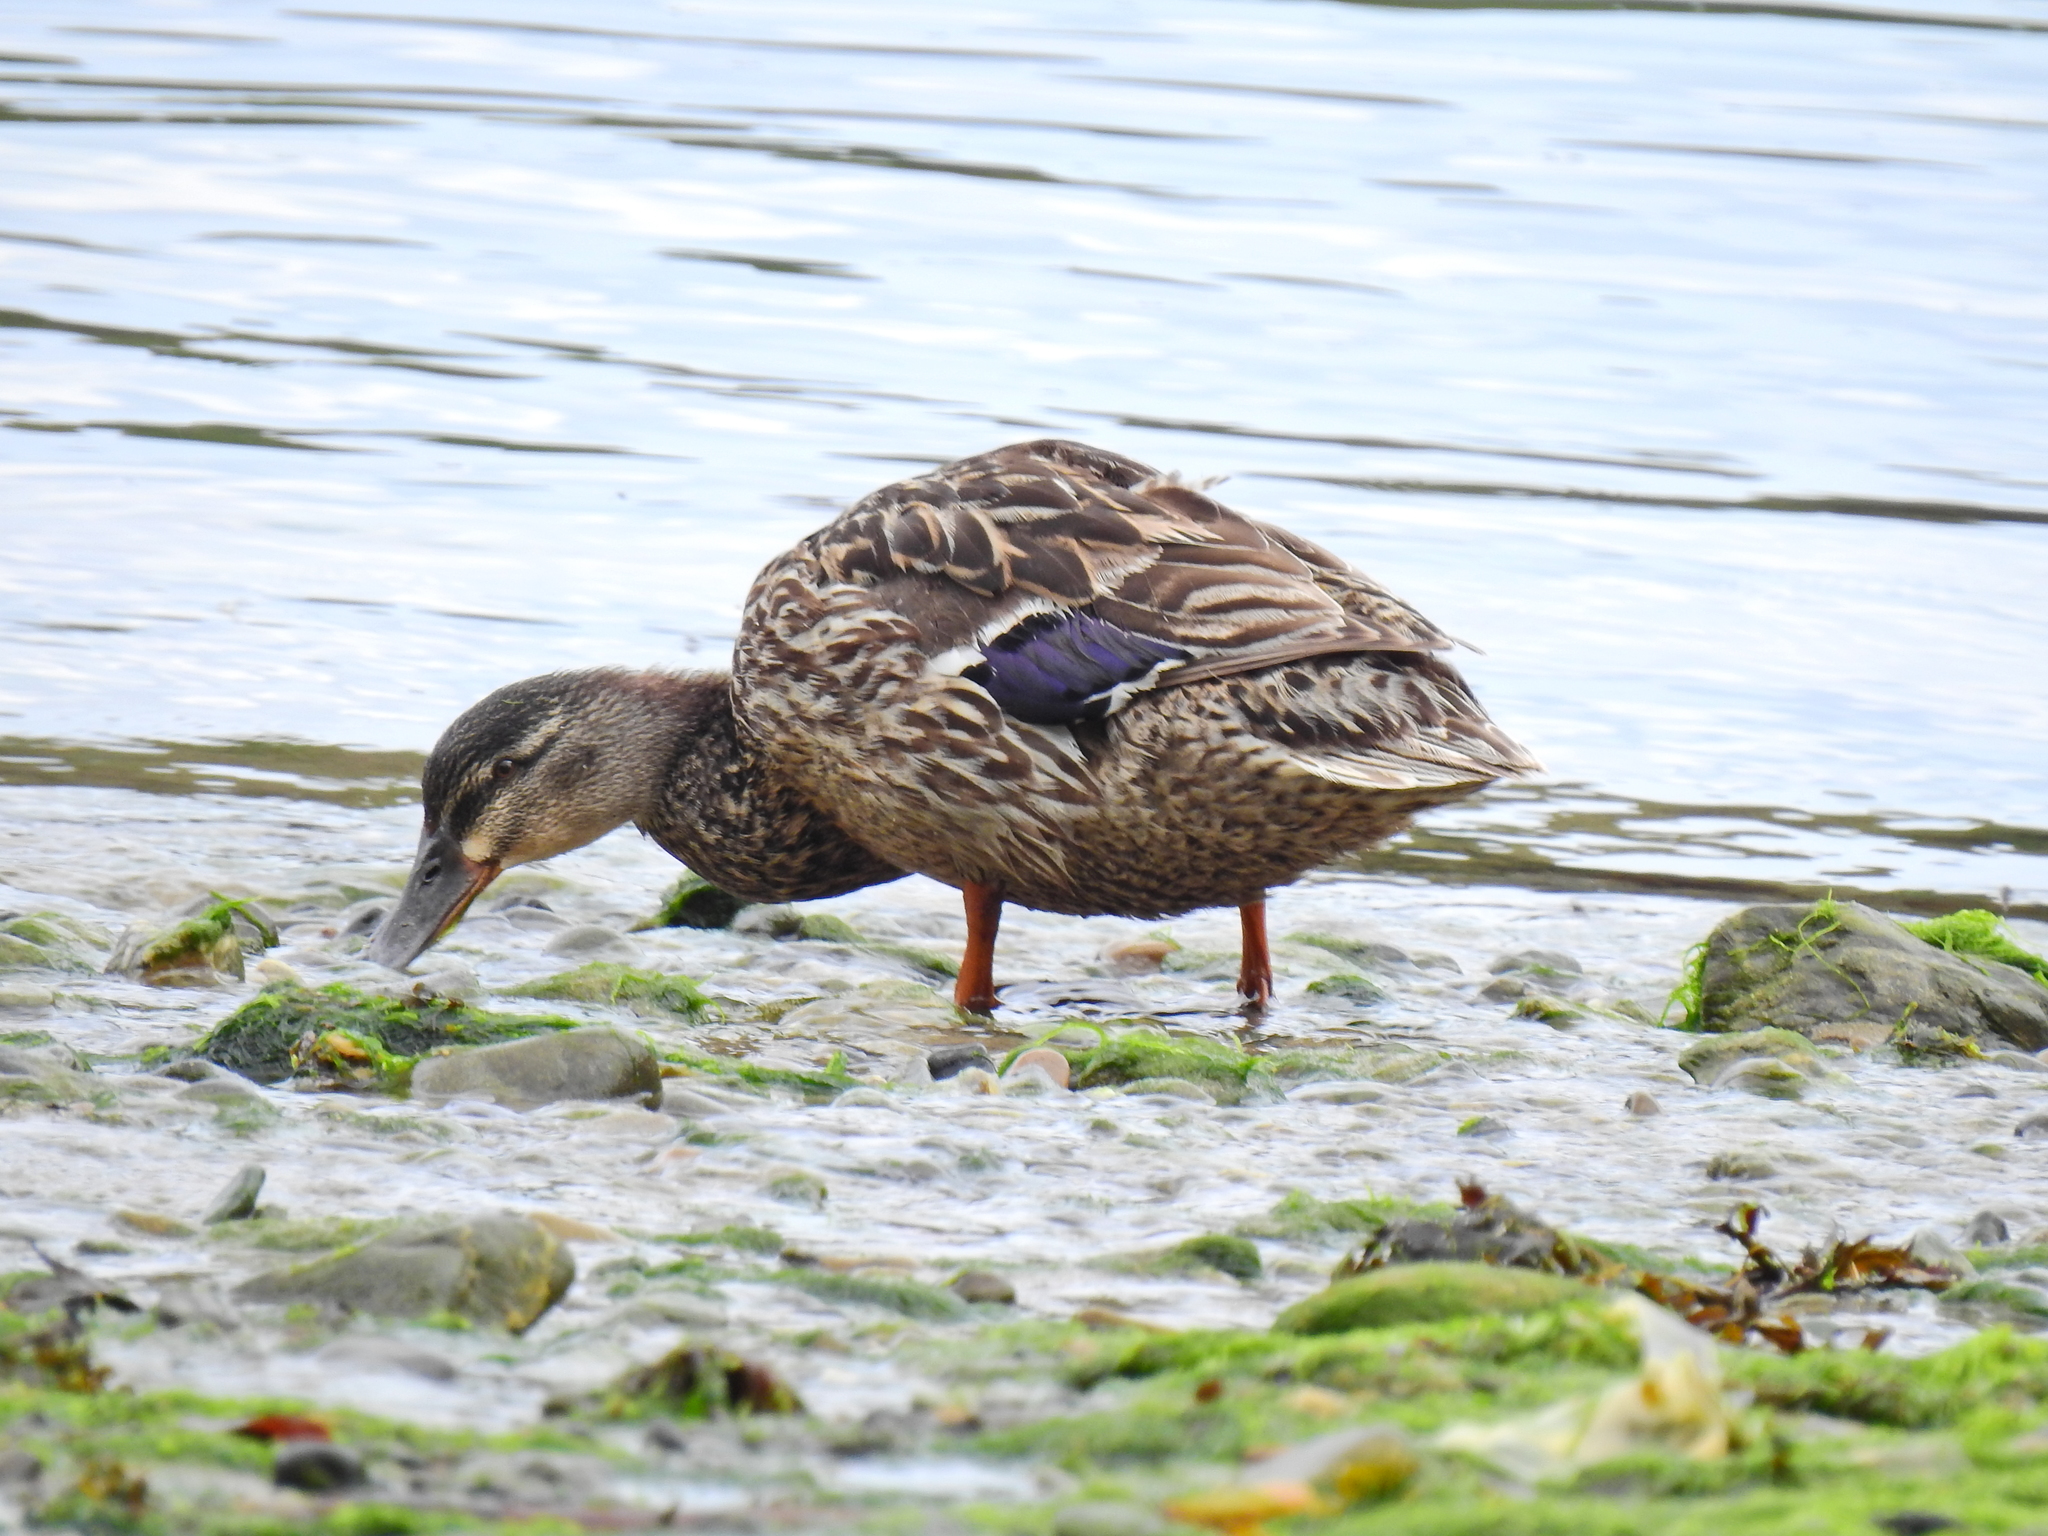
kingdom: Animalia
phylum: Chordata
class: Aves
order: Anseriformes
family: Anatidae
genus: Anas
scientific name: Anas platyrhynchos
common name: Mallard
